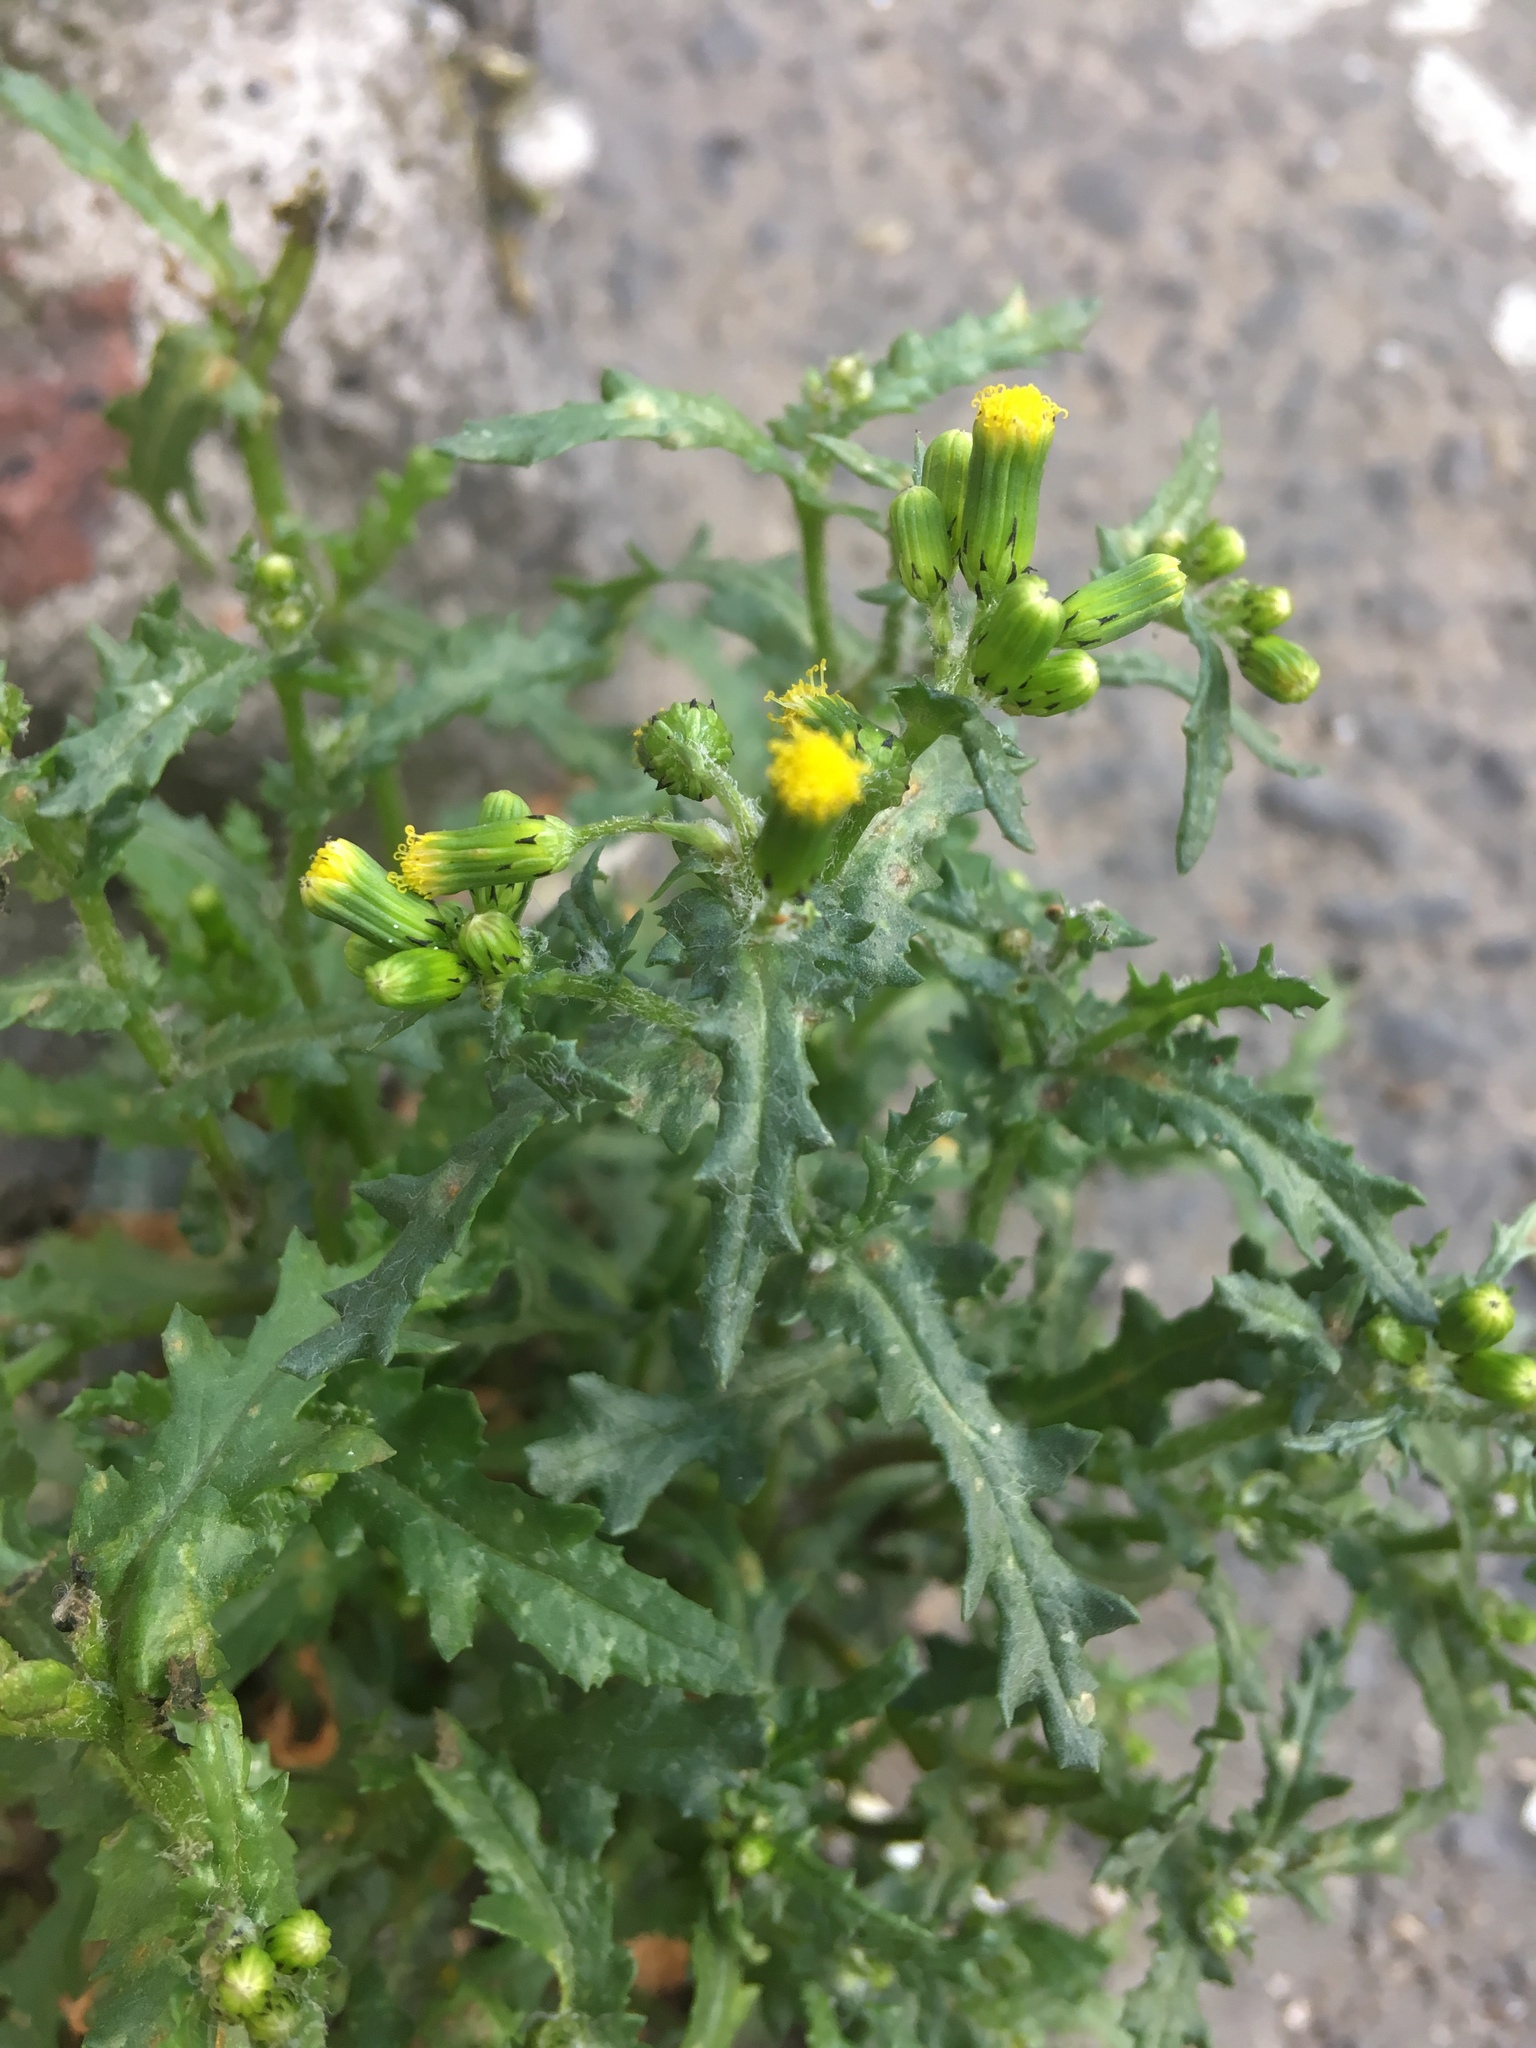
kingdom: Plantae
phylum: Tracheophyta
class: Magnoliopsida
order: Asterales
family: Asteraceae
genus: Senecio
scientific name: Senecio vulgaris
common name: Old-man-in-the-spring
